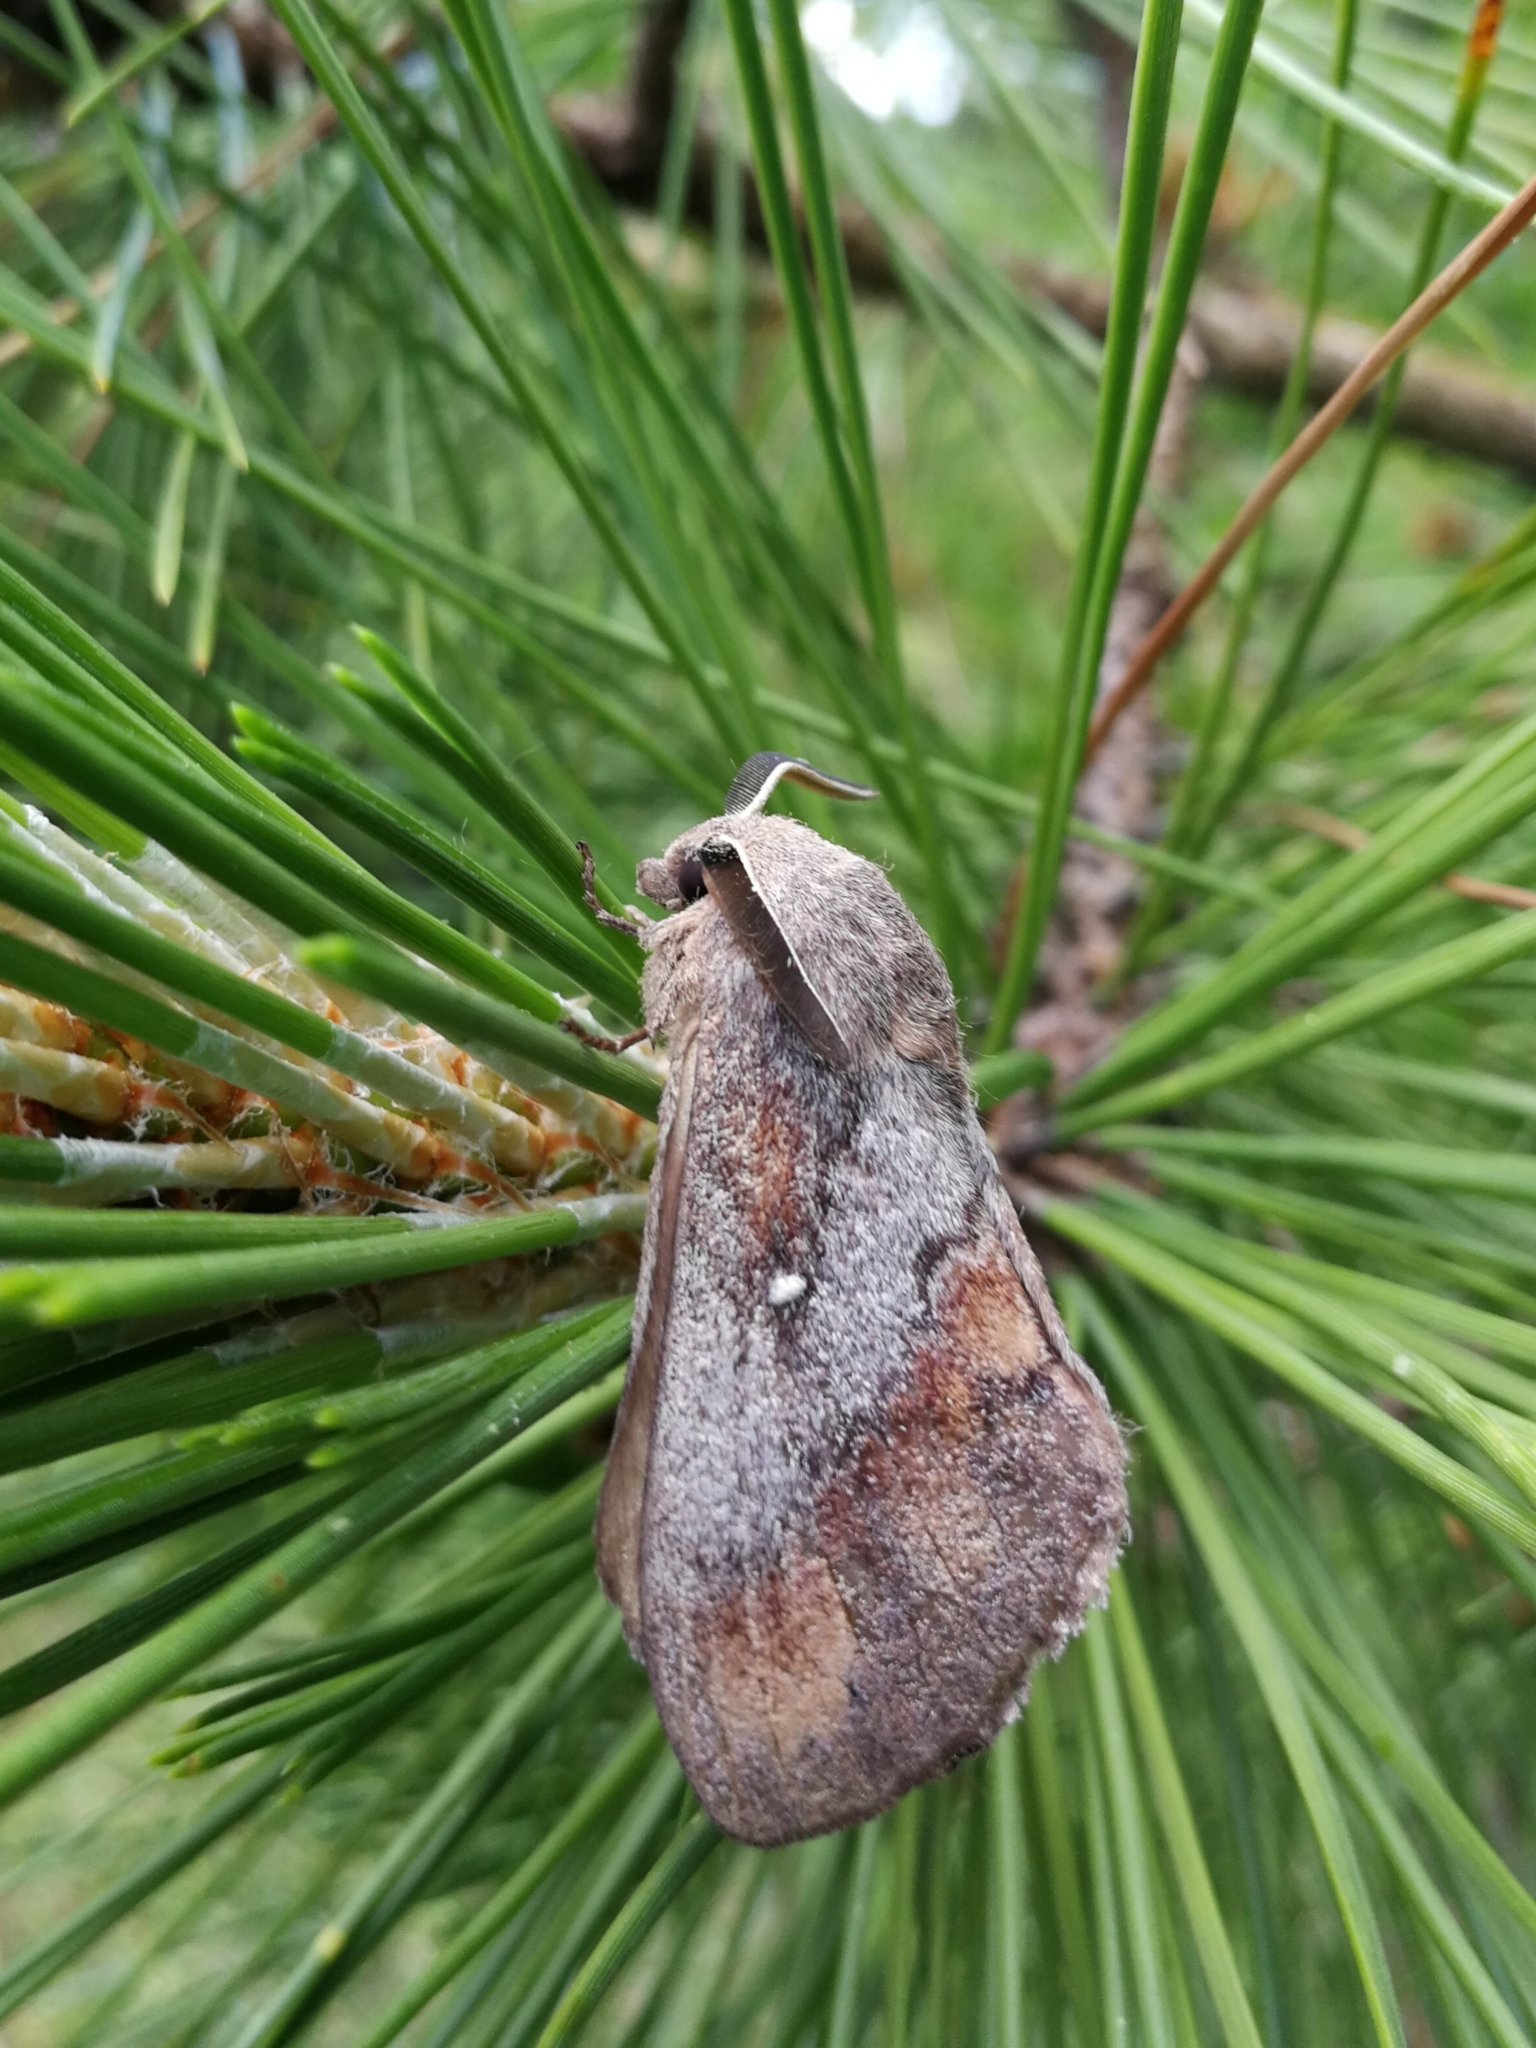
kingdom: Animalia
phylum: Arthropoda
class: Insecta
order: Lepidoptera
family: Lasiocampidae
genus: Dendrolimus
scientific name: Dendrolimus pini
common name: Pine-tree lappet
